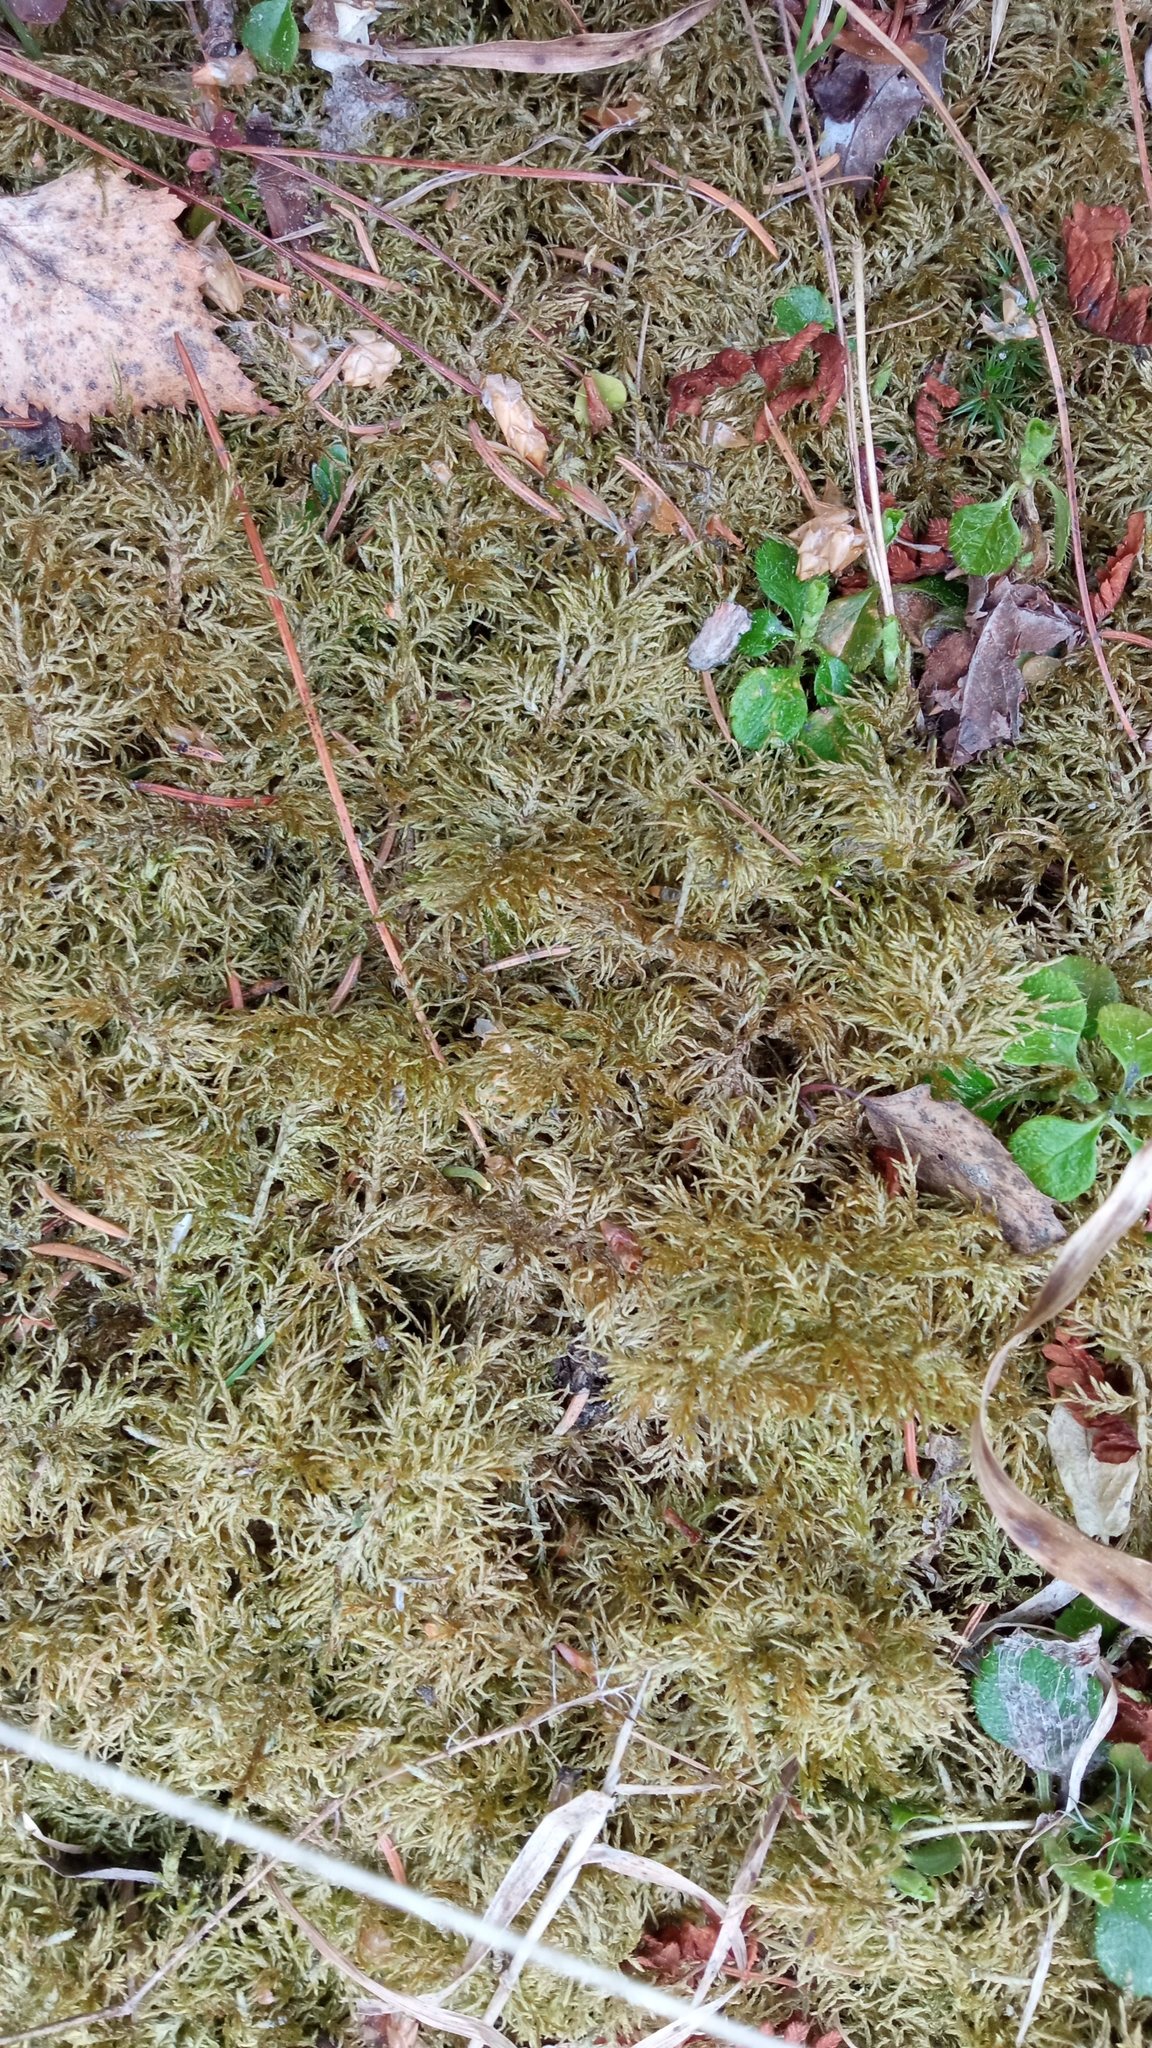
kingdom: Plantae
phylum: Bryophyta
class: Bryopsida
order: Hypnales
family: Hylocomiaceae
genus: Hylocomium
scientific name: Hylocomium splendens
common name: Stairstep moss
